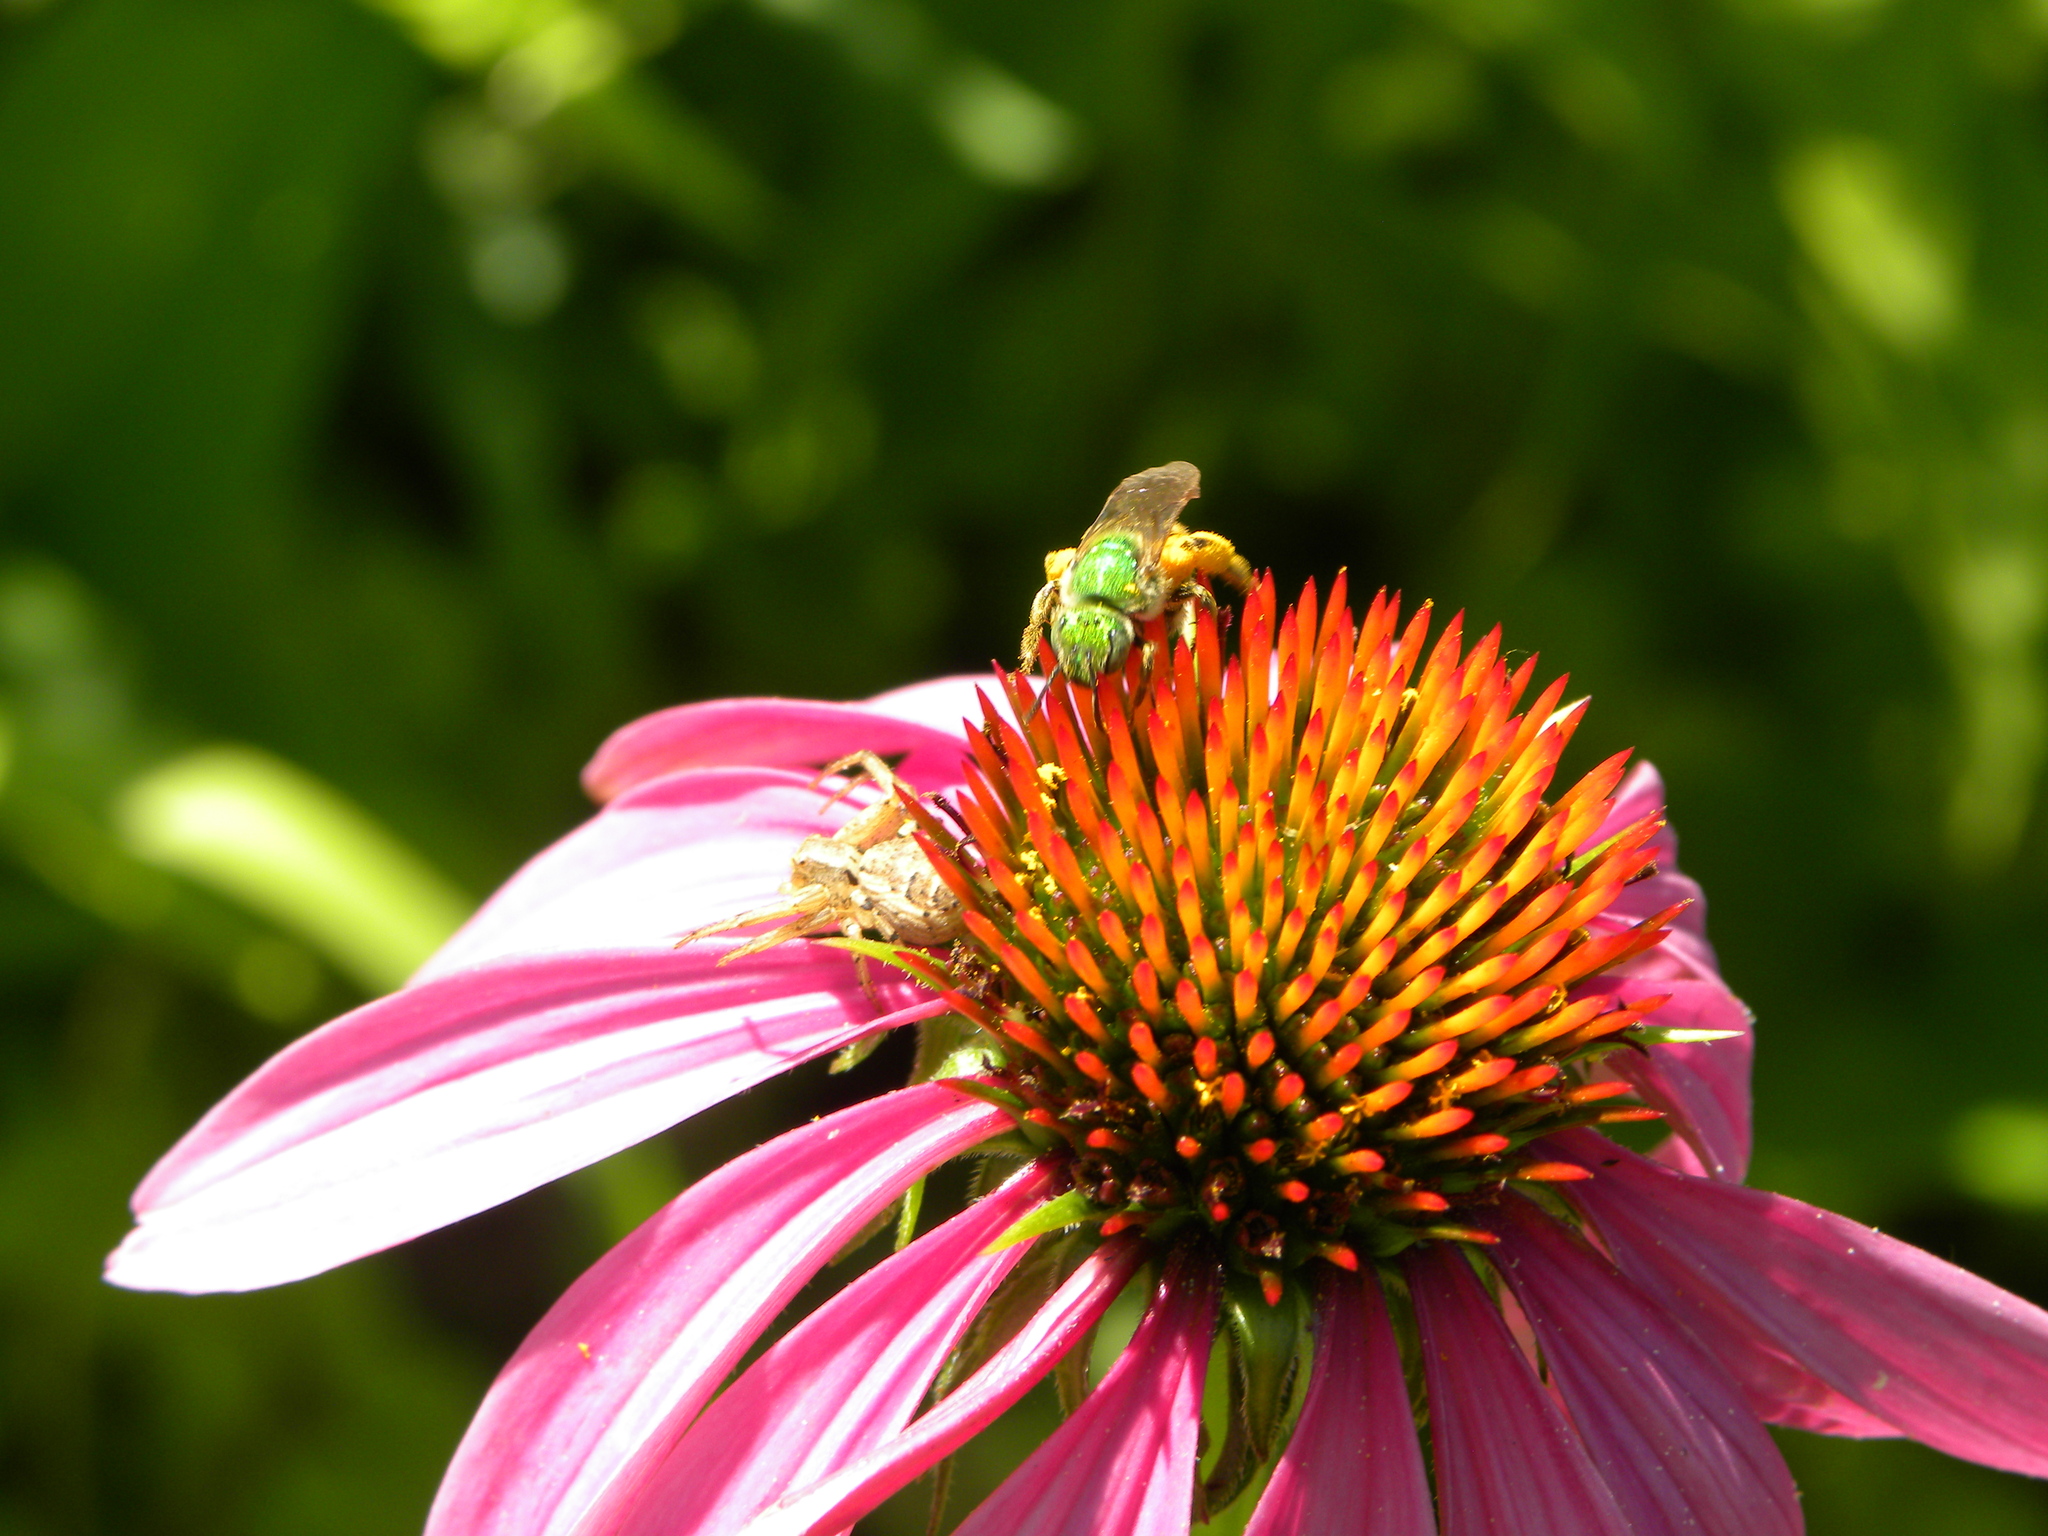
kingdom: Animalia
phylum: Arthropoda
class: Arachnida
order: Araneae
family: Thomisidae
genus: Xysticus
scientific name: Xysticus
